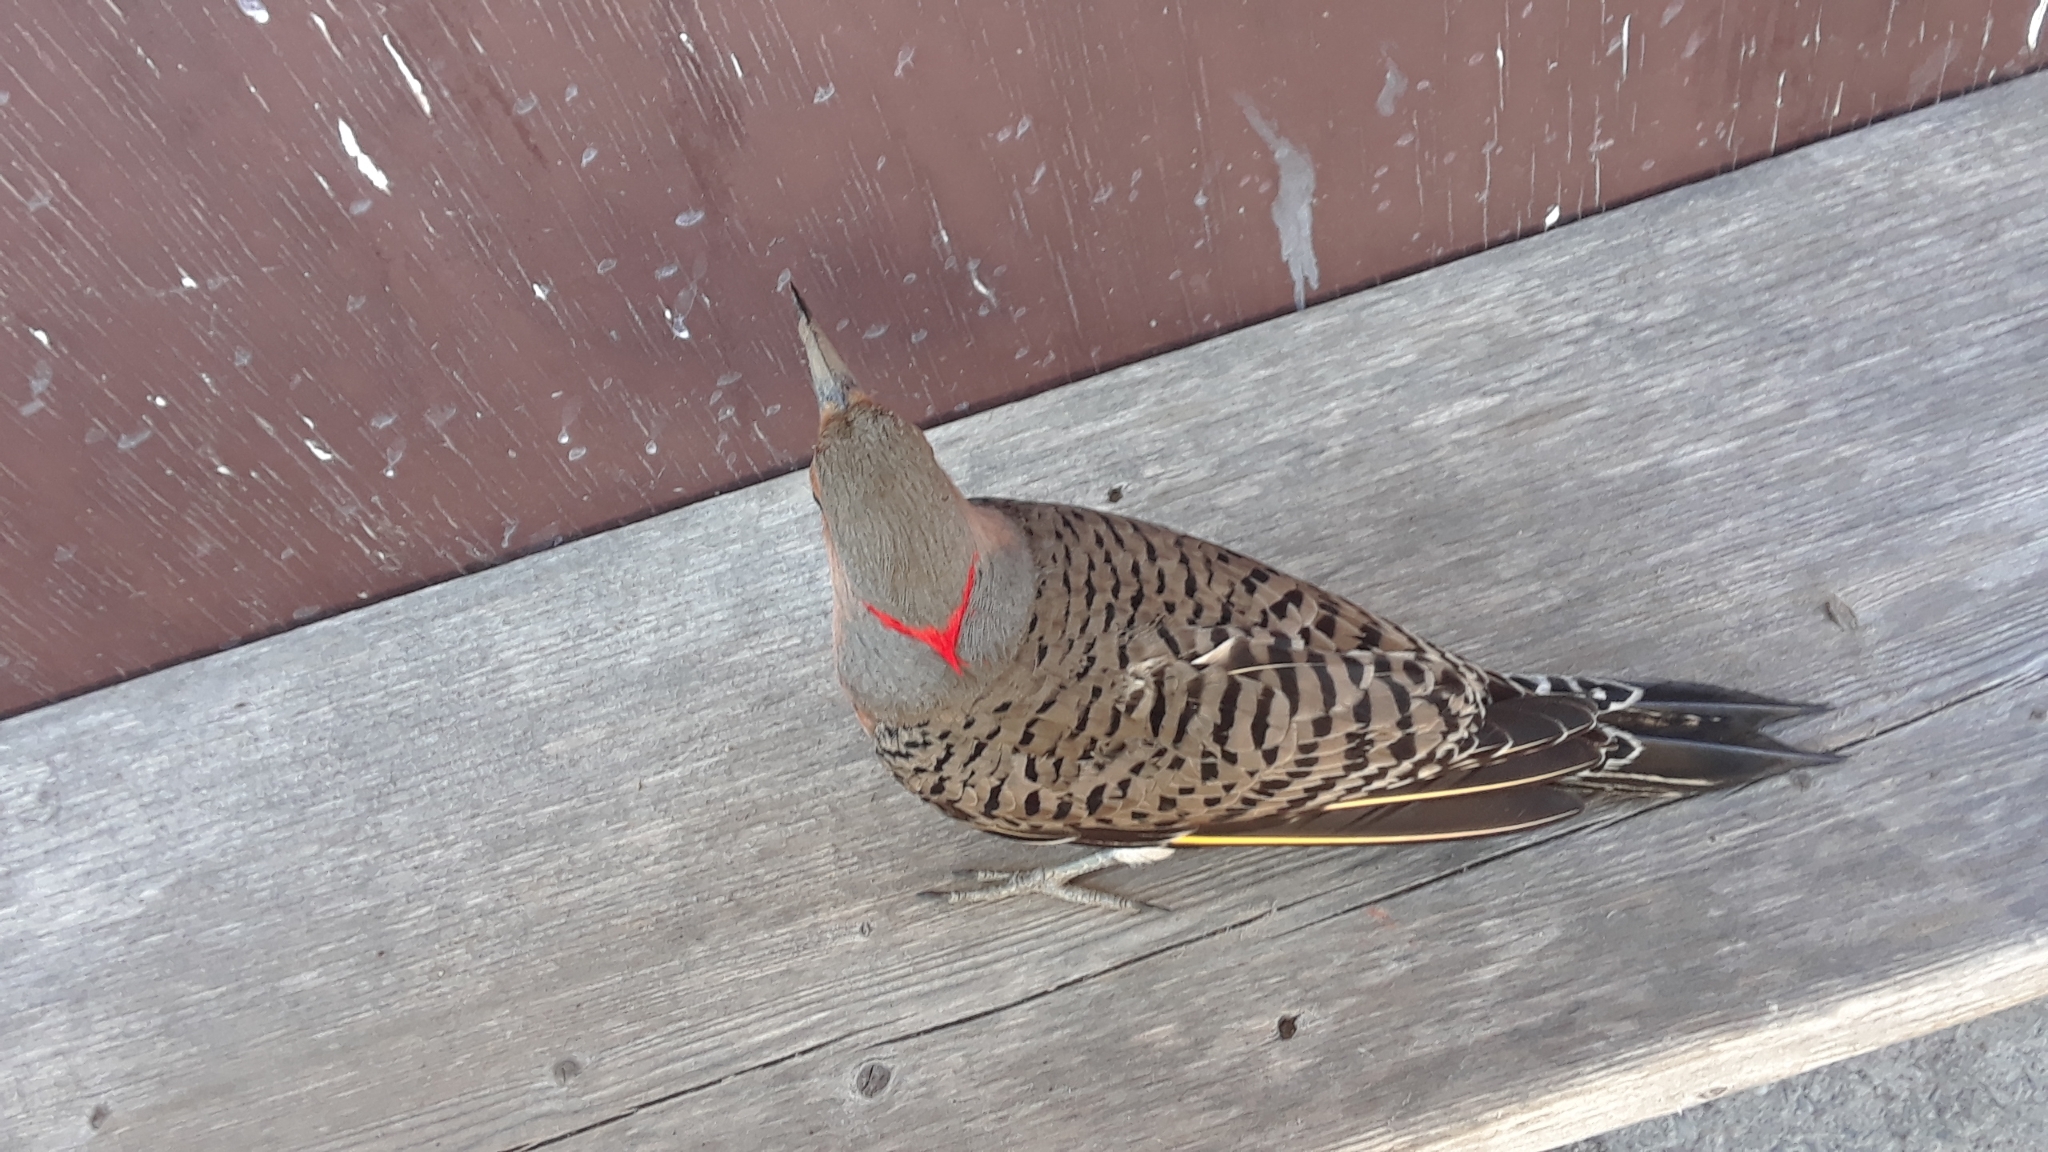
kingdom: Animalia
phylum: Chordata
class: Aves
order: Piciformes
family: Picidae
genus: Colaptes
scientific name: Colaptes auratus
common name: Northern flicker
